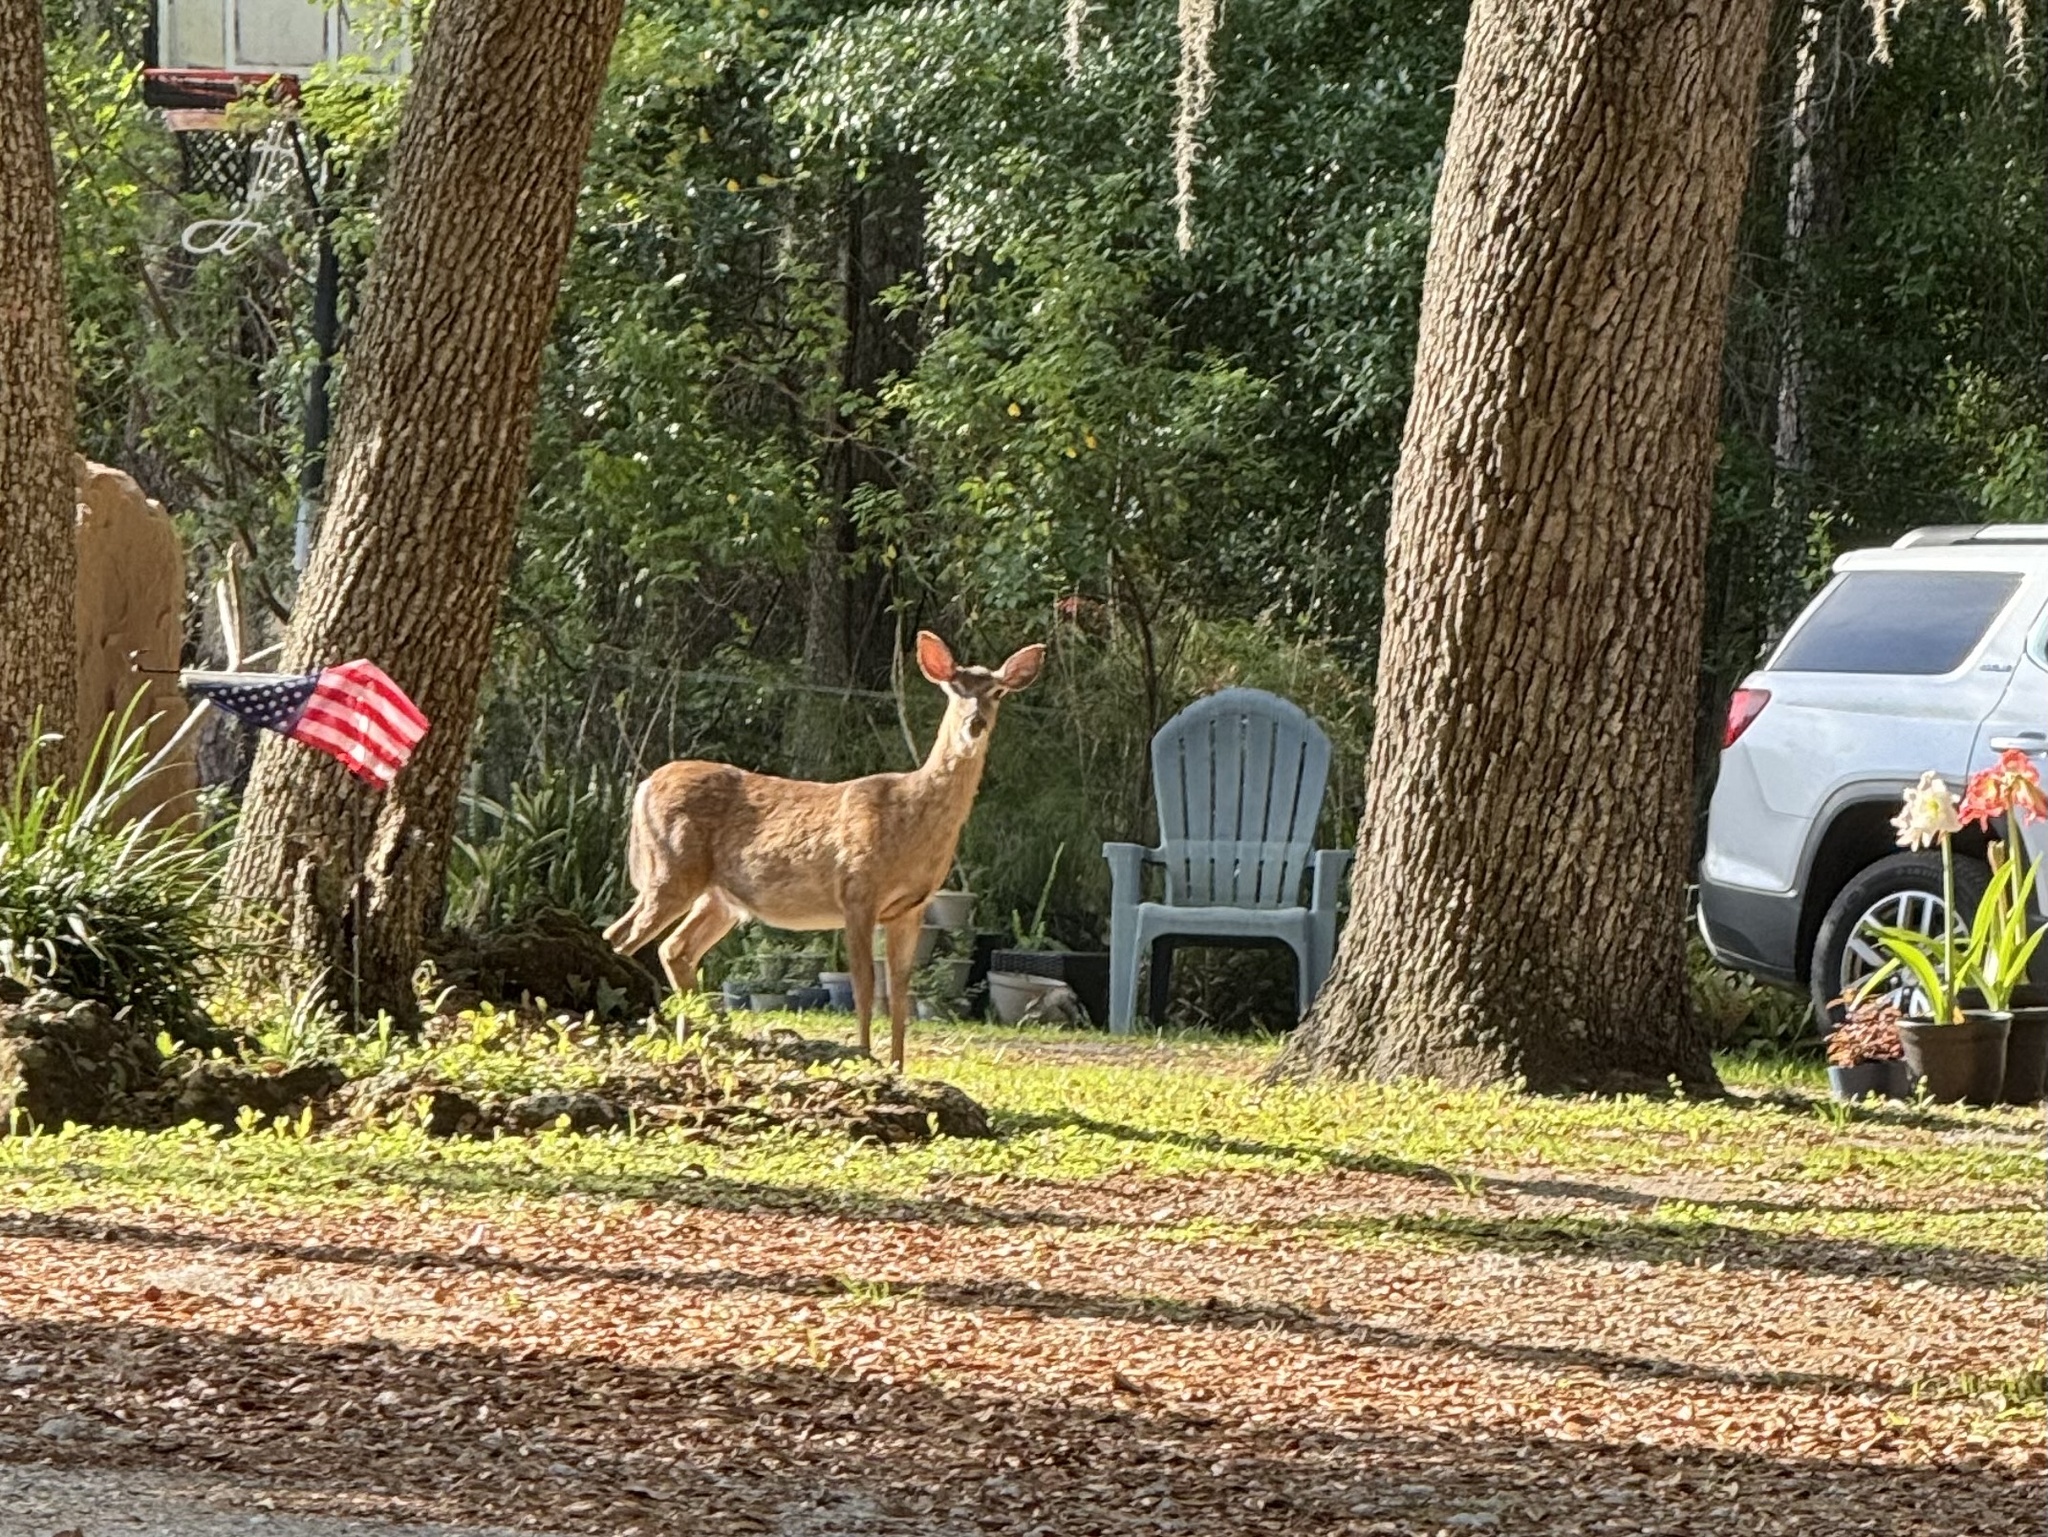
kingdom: Animalia
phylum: Chordata
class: Mammalia
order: Artiodactyla
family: Cervidae
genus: Odocoileus
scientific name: Odocoileus virginianus
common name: White-tailed deer
